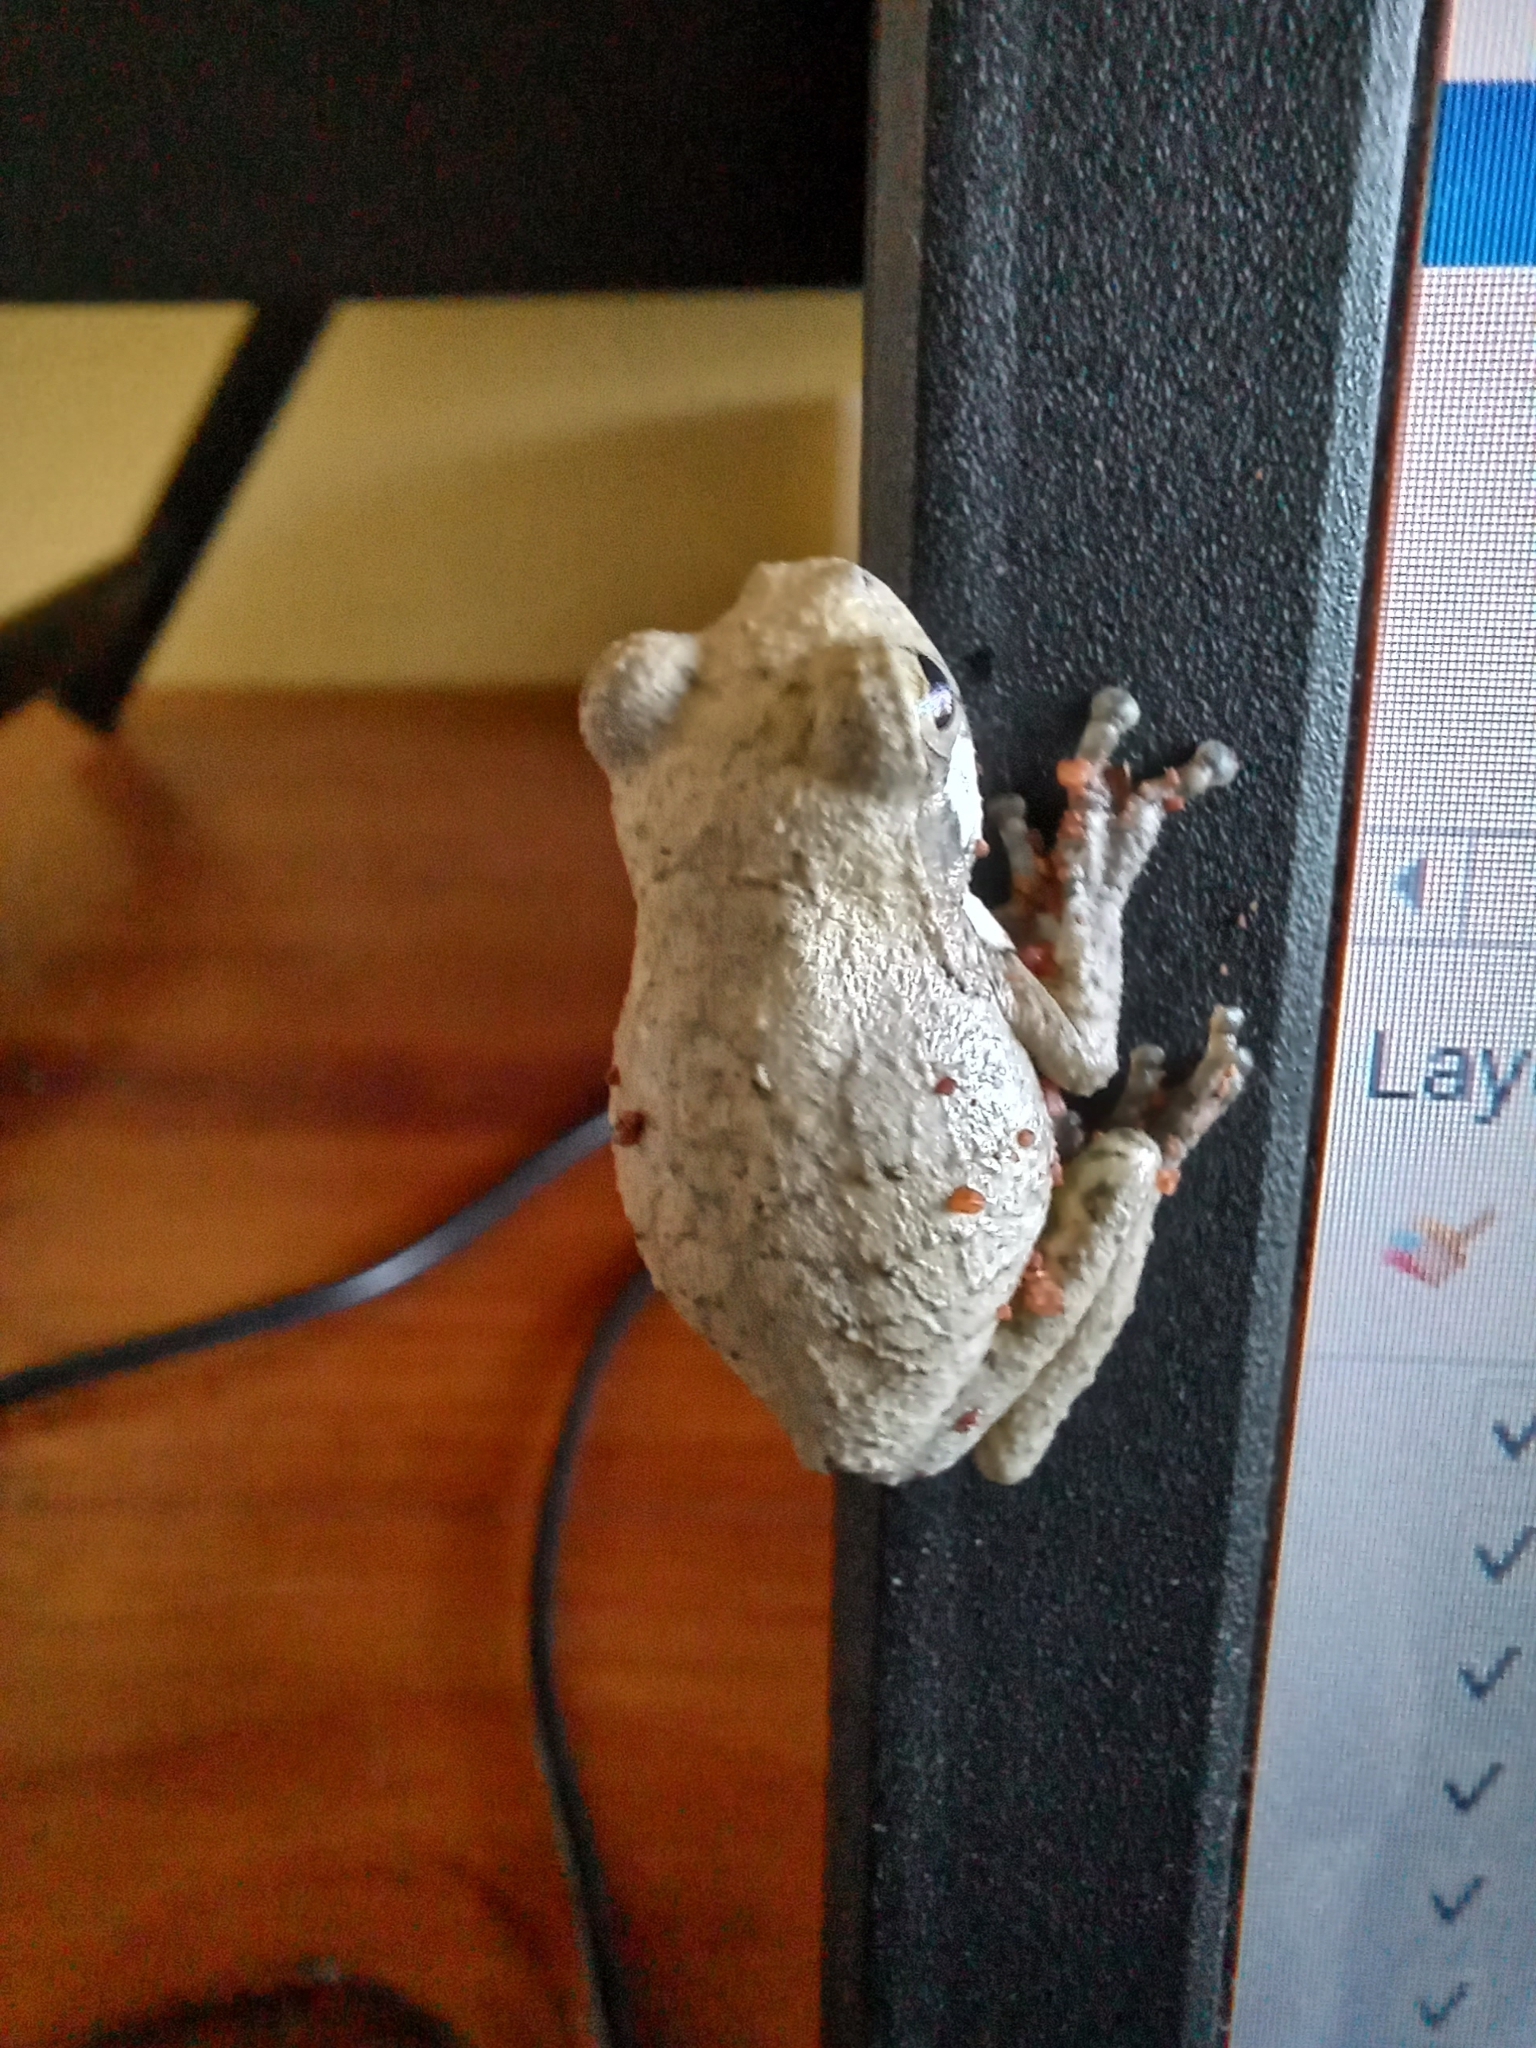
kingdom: Animalia
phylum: Chordata
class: Amphibia
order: Anura
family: Rhacophoridae
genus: Chiromantis
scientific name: Chiromantis xerampelina
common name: African gray treefrog
